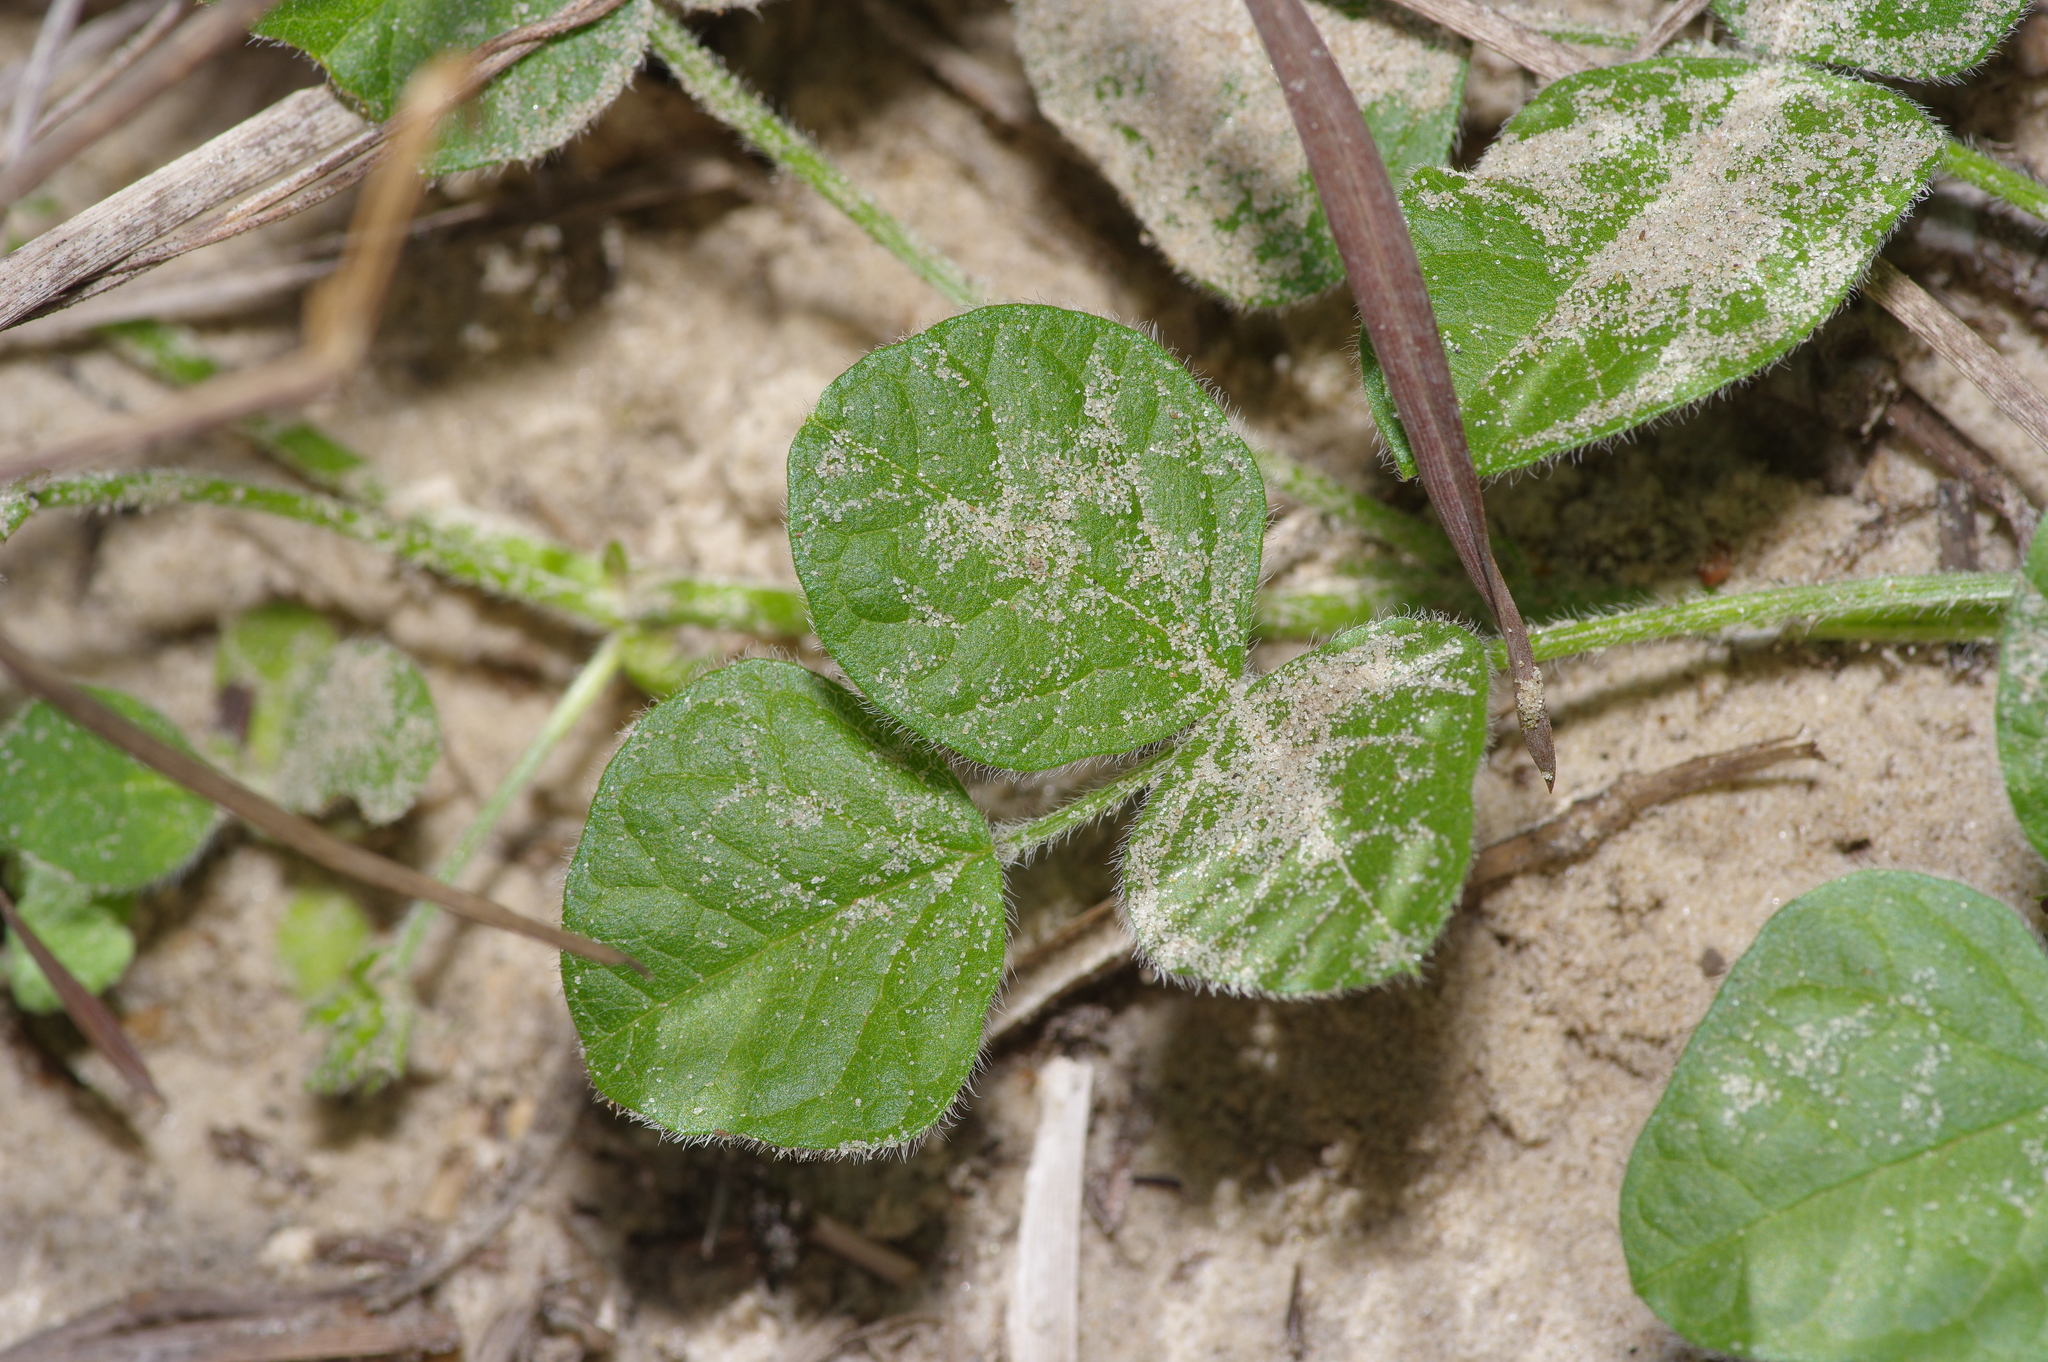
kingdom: Plantae
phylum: Tracheophyta
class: Magnoliopsida
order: Fabales
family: Fabaceae
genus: Rhynchosia
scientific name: Rhynchosia minima
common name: Least snoutbean
